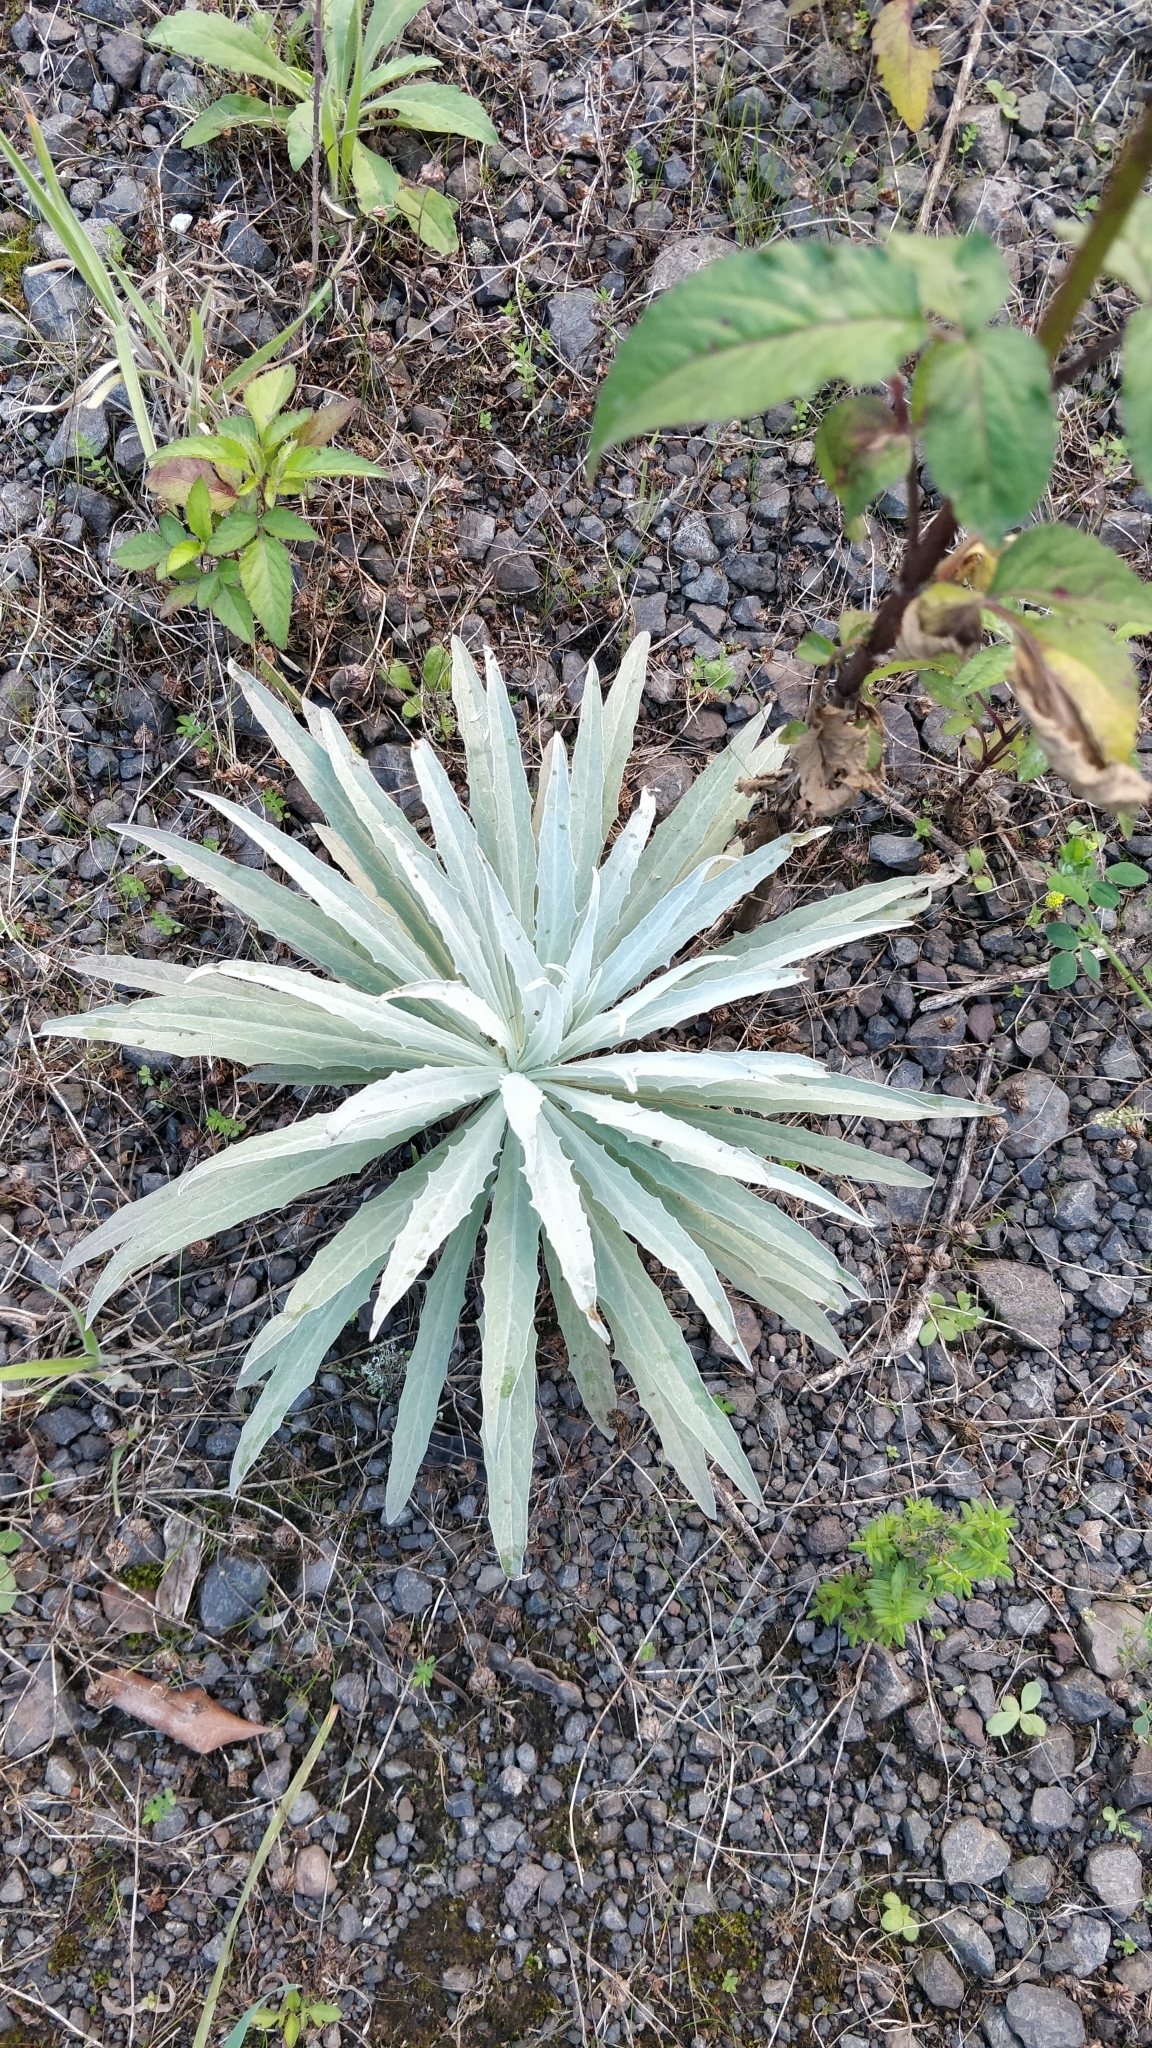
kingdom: Plantae
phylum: Tracheophyta
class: Magnoliopsida
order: Asterales
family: Asteraceae
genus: Andryala
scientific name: Andryala glandulosa
